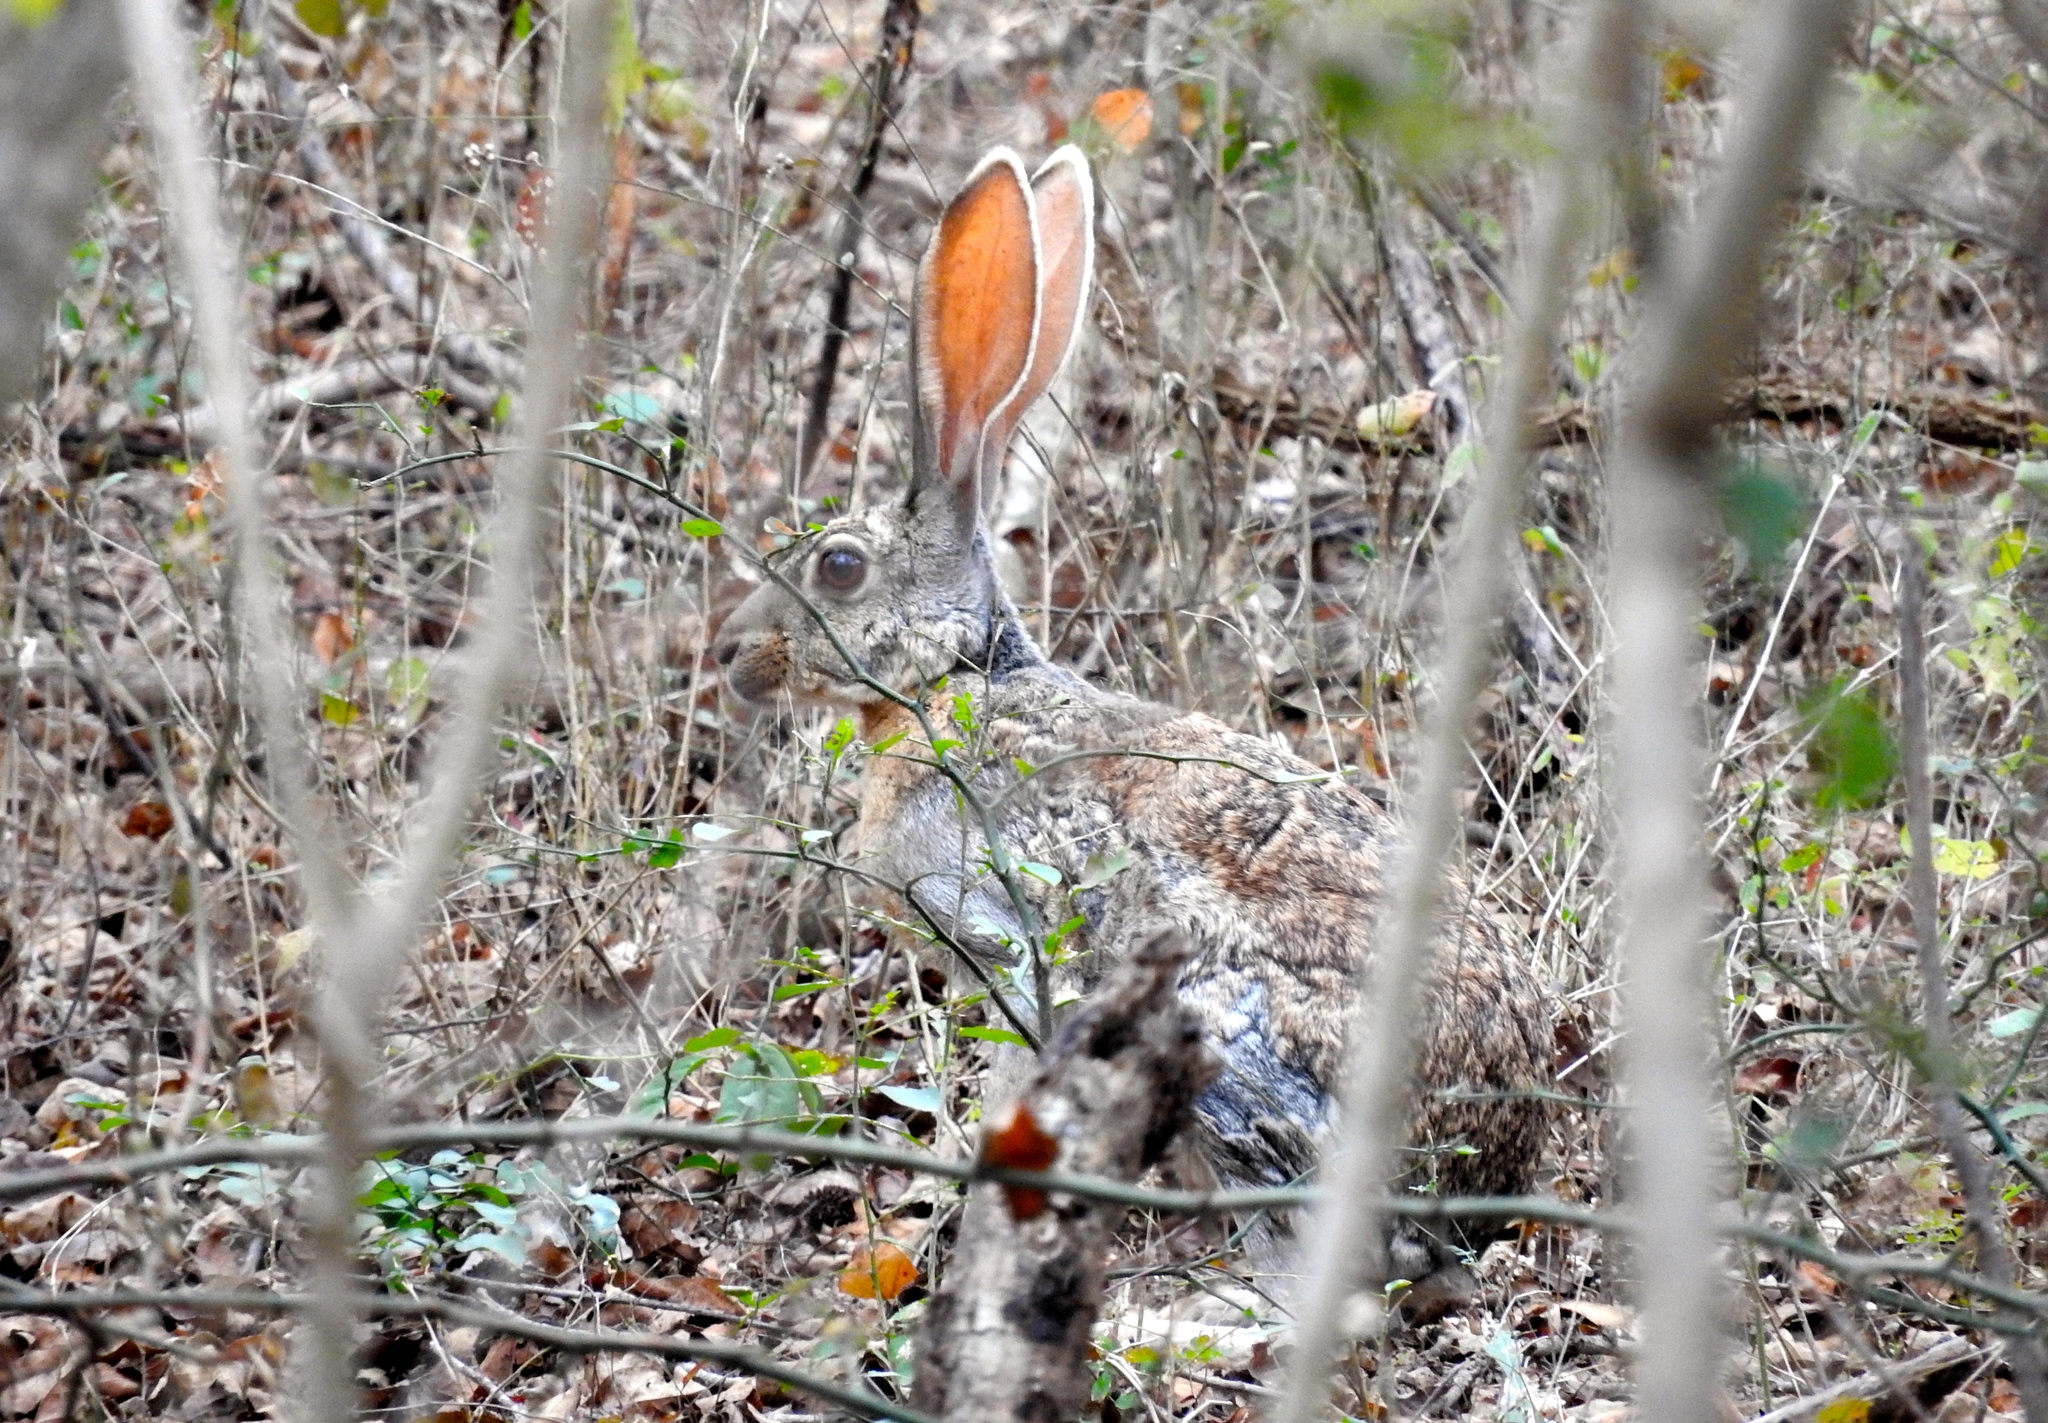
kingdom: Animalia
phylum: Chordata
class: Mammalia
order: Lagomorpha
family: Leporidae
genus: Lepus
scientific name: Lepus alleni
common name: Antelope jackrabbit
